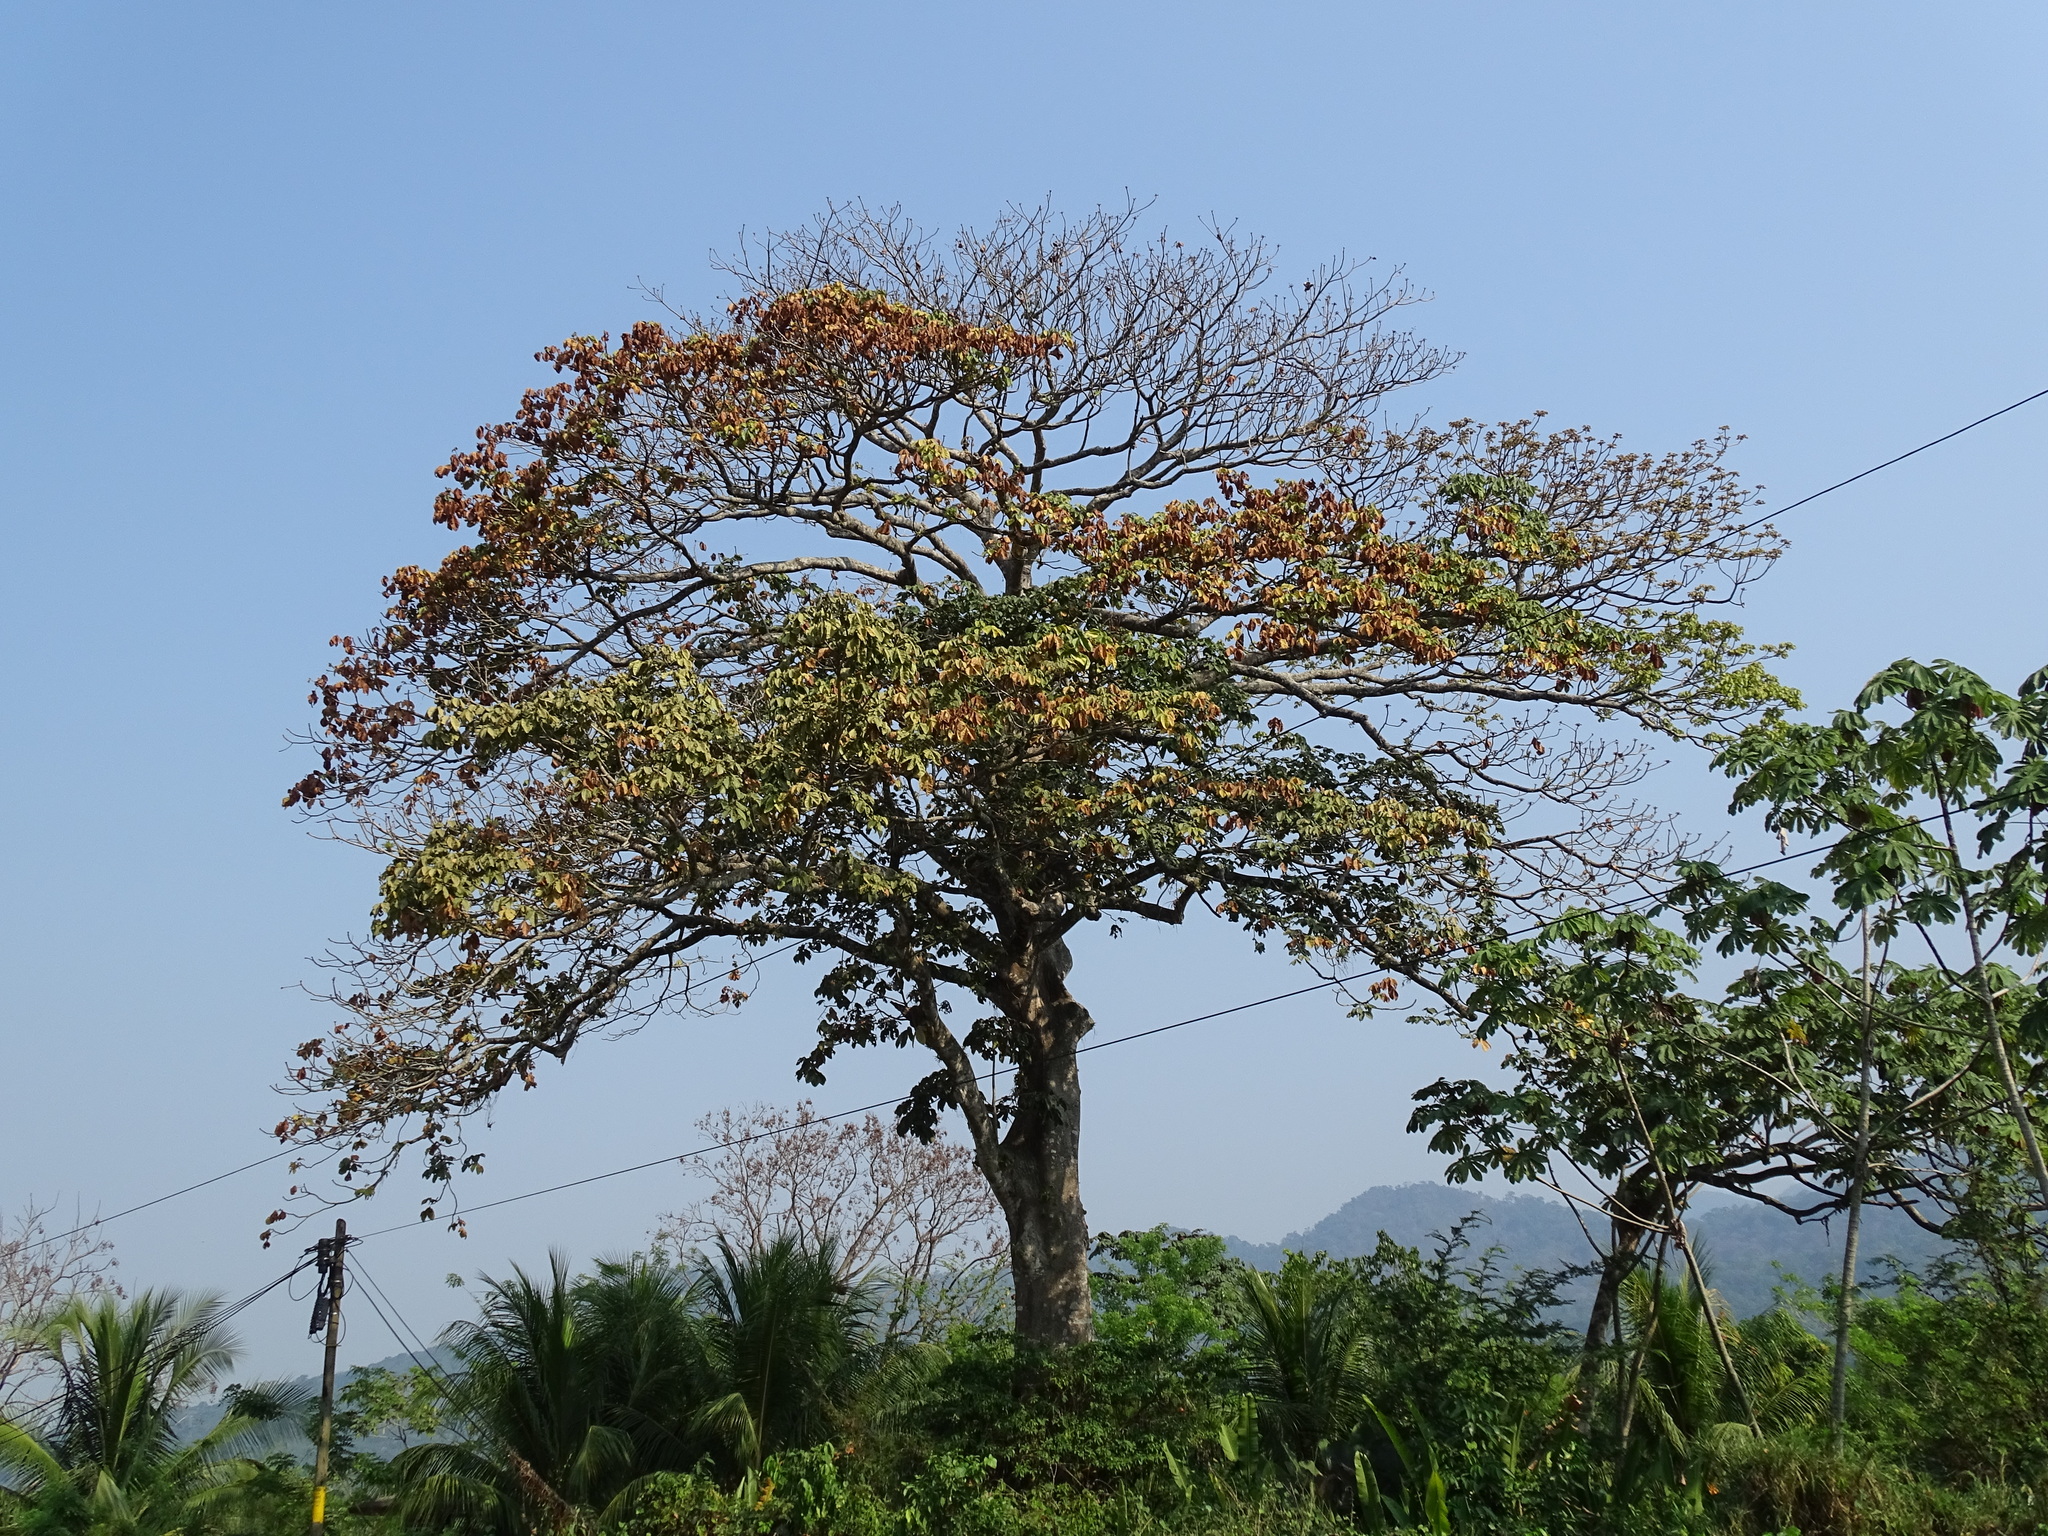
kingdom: Plantae
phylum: Tracheophyta
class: Magnoliopsida
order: Malvales
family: Malvaceae
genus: Sterculia
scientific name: Sterculia apetala
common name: Panama tree
